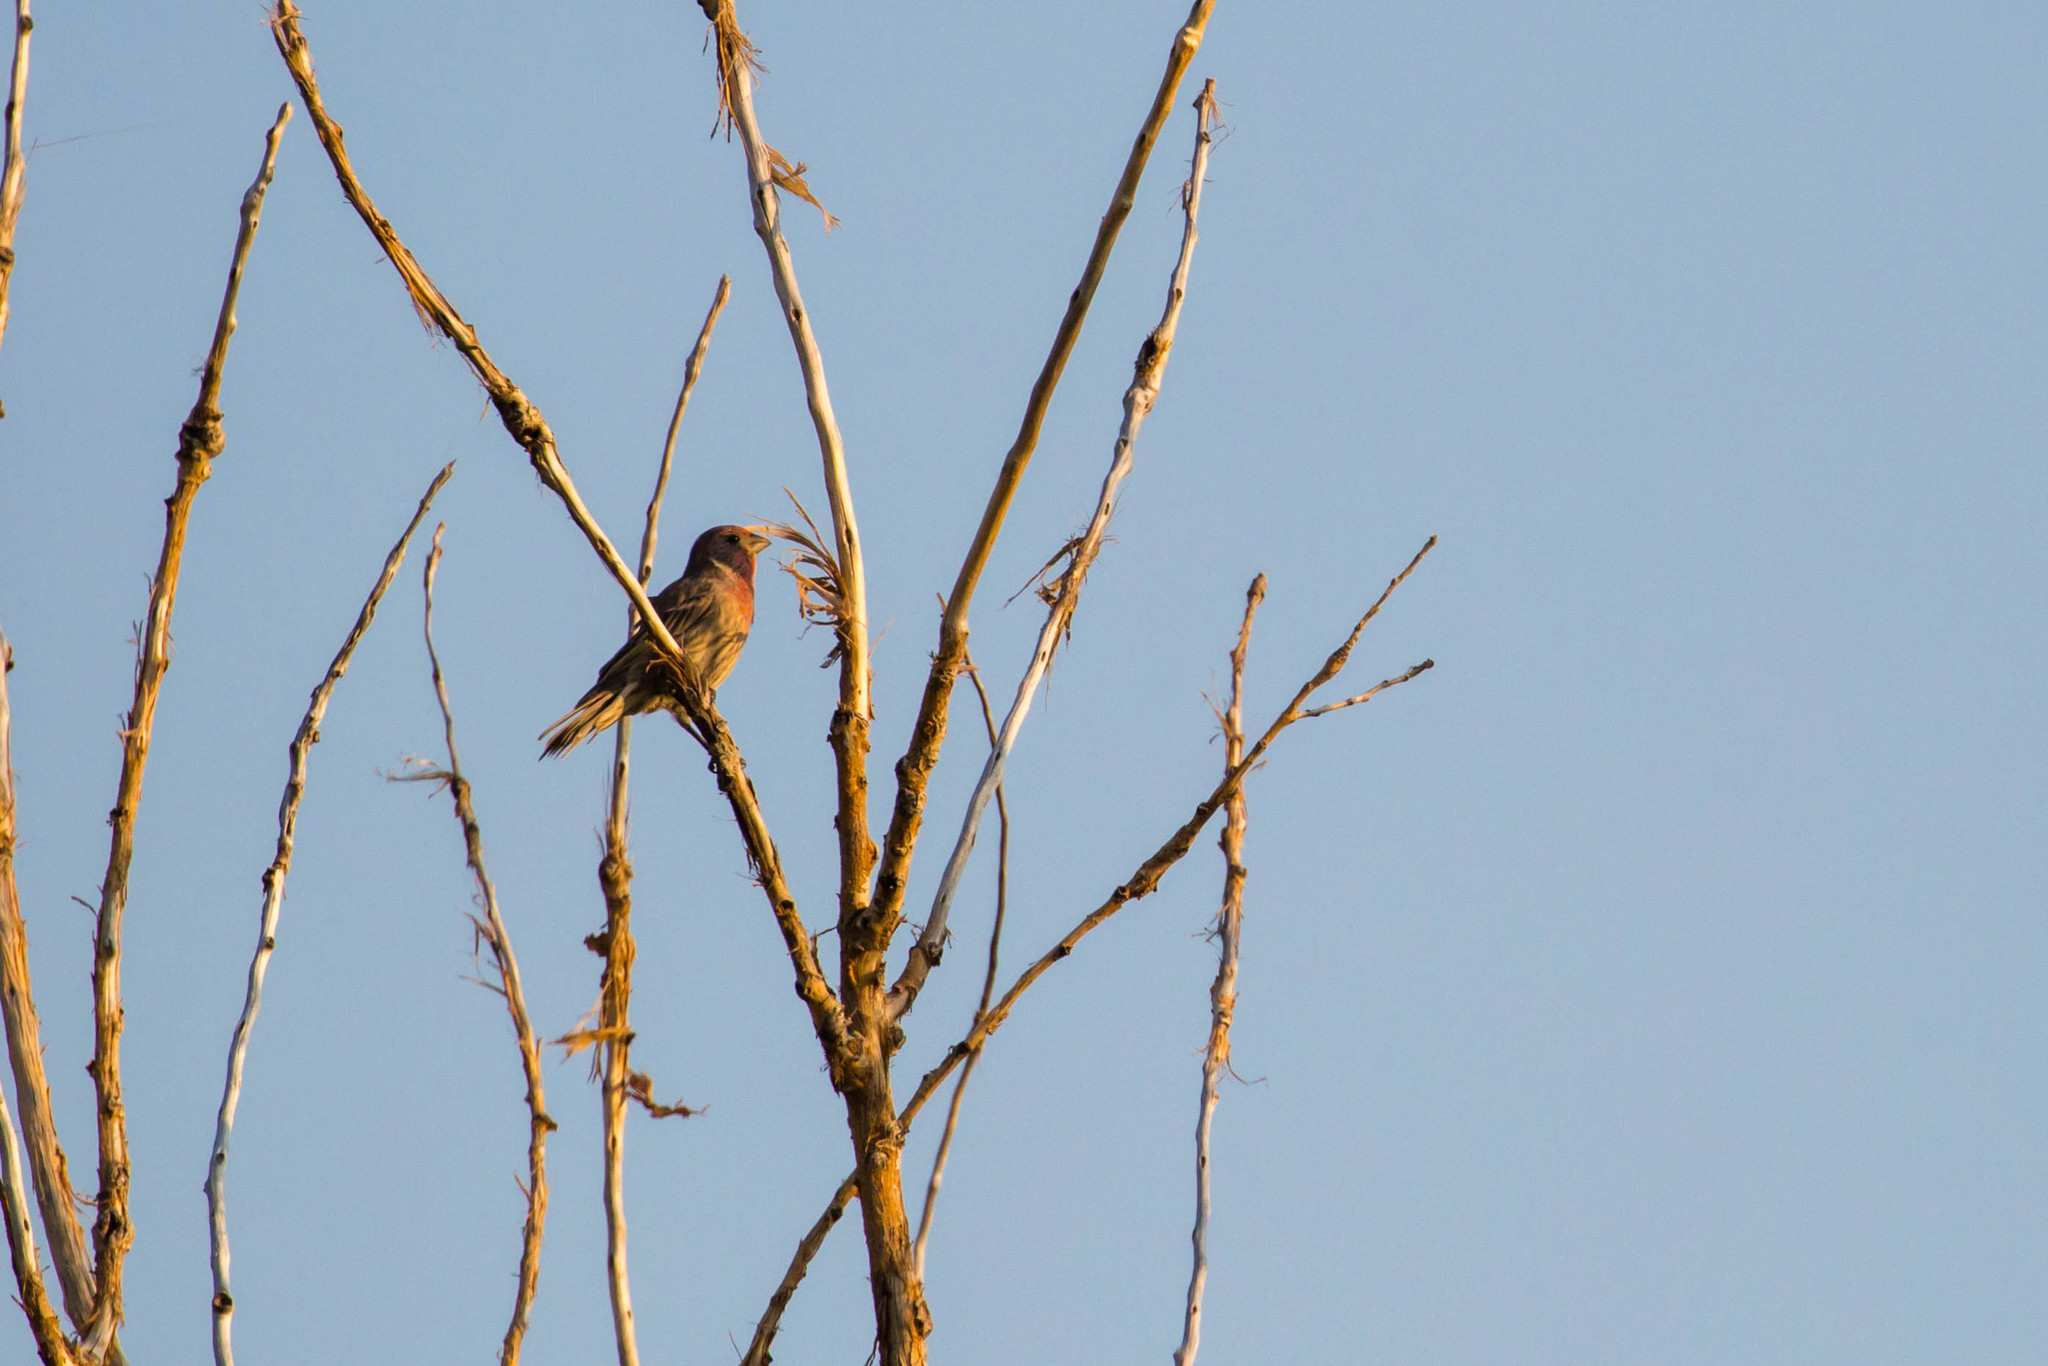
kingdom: Animalia
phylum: Chordata
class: Aves
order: Passeriformes
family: Fringillidae
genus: Haemorhous
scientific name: Haemorhous mexicanus
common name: House finch
